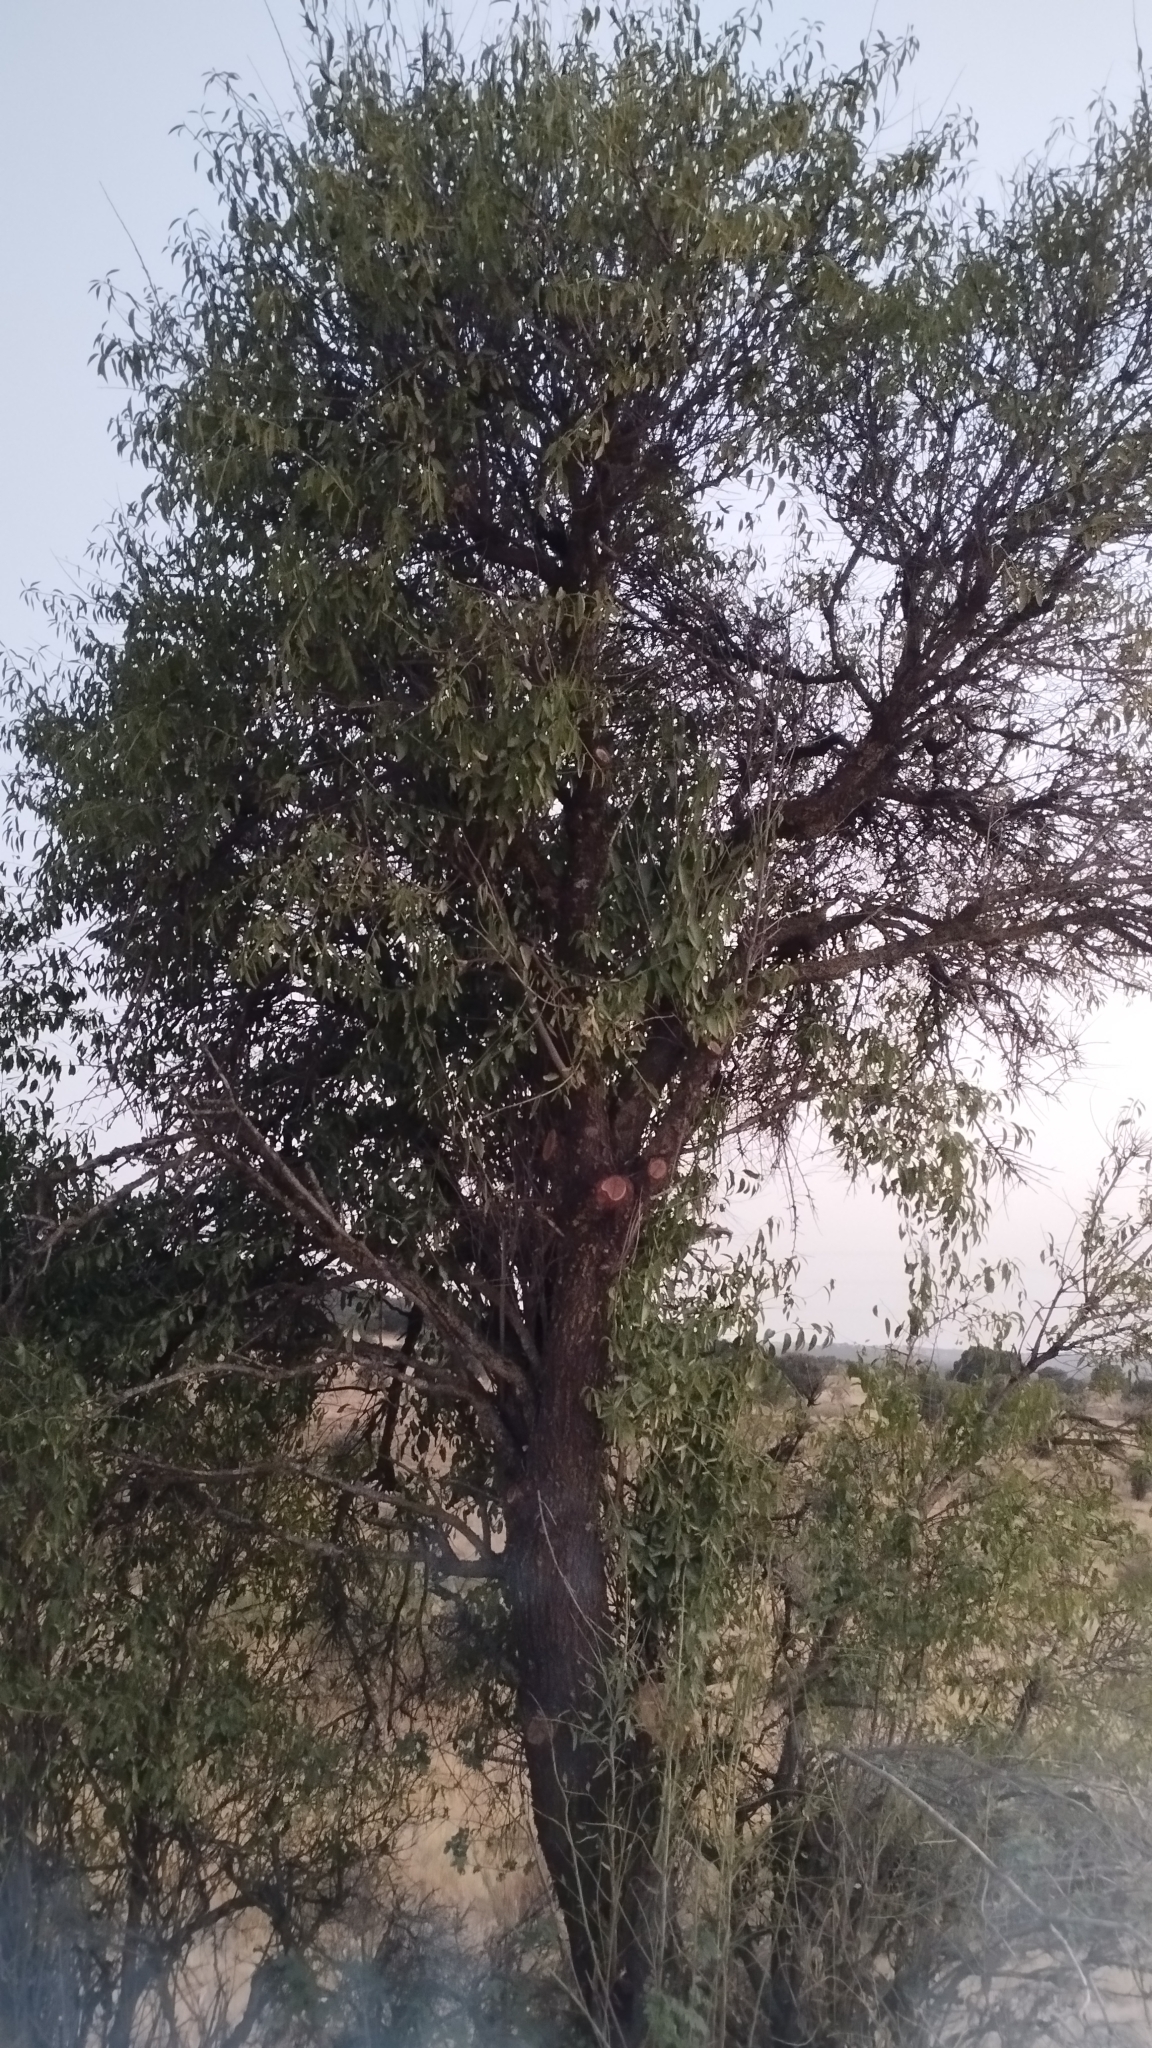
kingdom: Plantae
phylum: Tracheophyta
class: Magnoliopsida
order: Rosales
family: Rosaceae
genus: Prunus
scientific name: Prunus amygdalus
